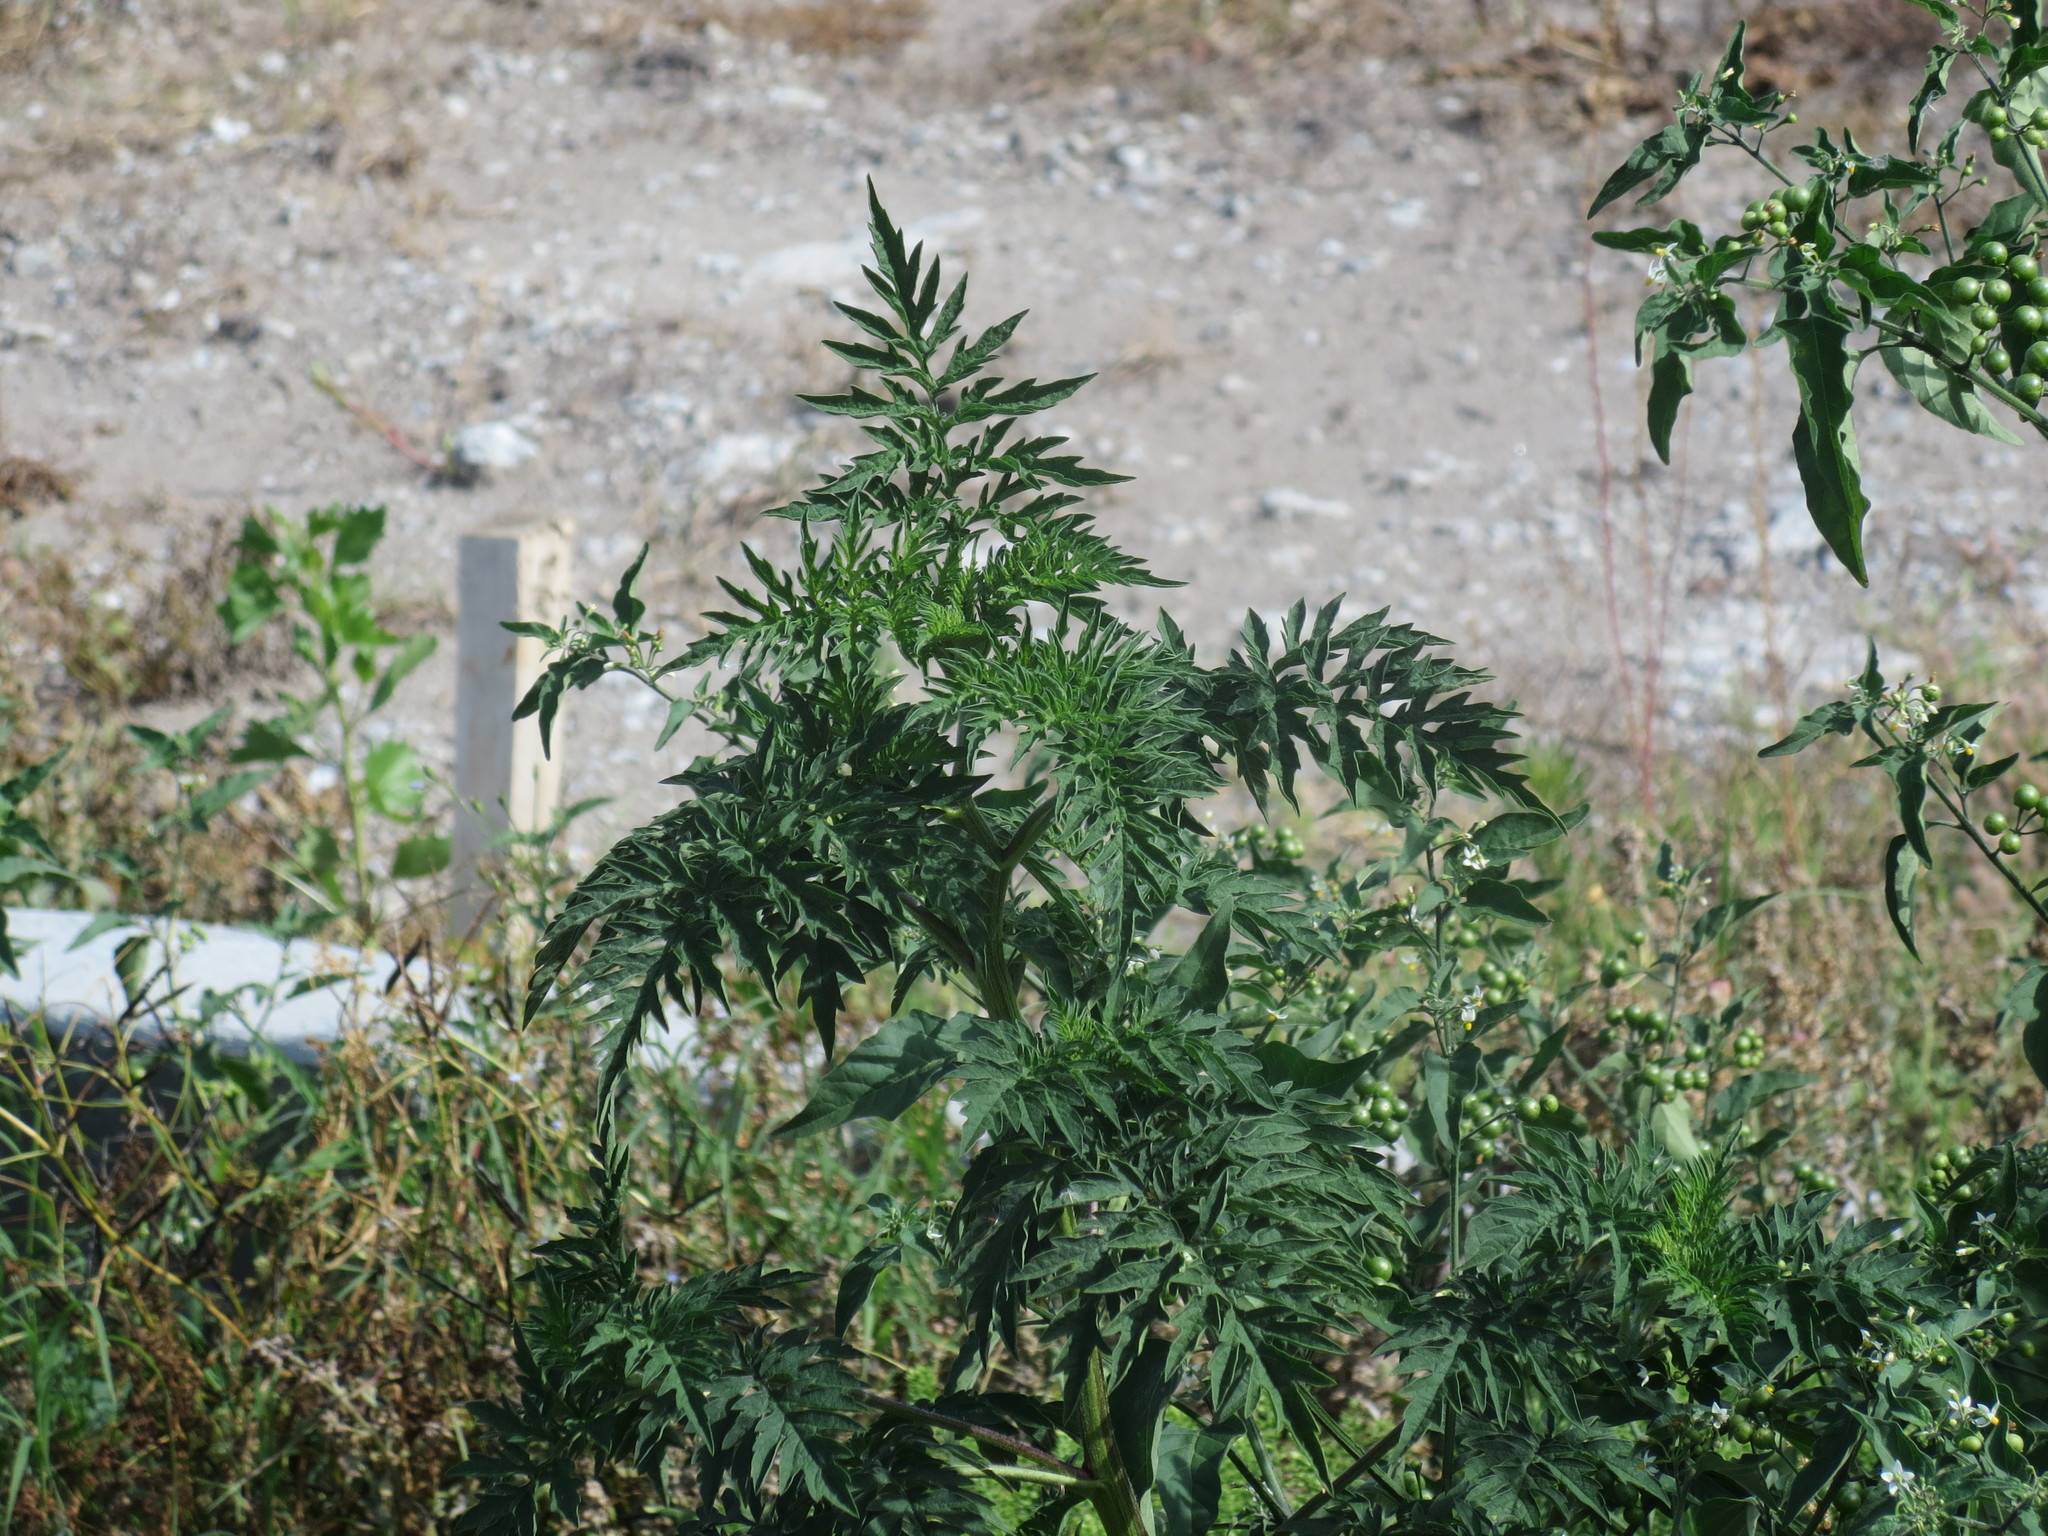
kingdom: Plantae
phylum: Tracheophyta
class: Magnoliopsida
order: Asterales
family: Asteraceae
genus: Ambrosia
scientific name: Ambrosia artemisiifolia
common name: Annual ragweed
